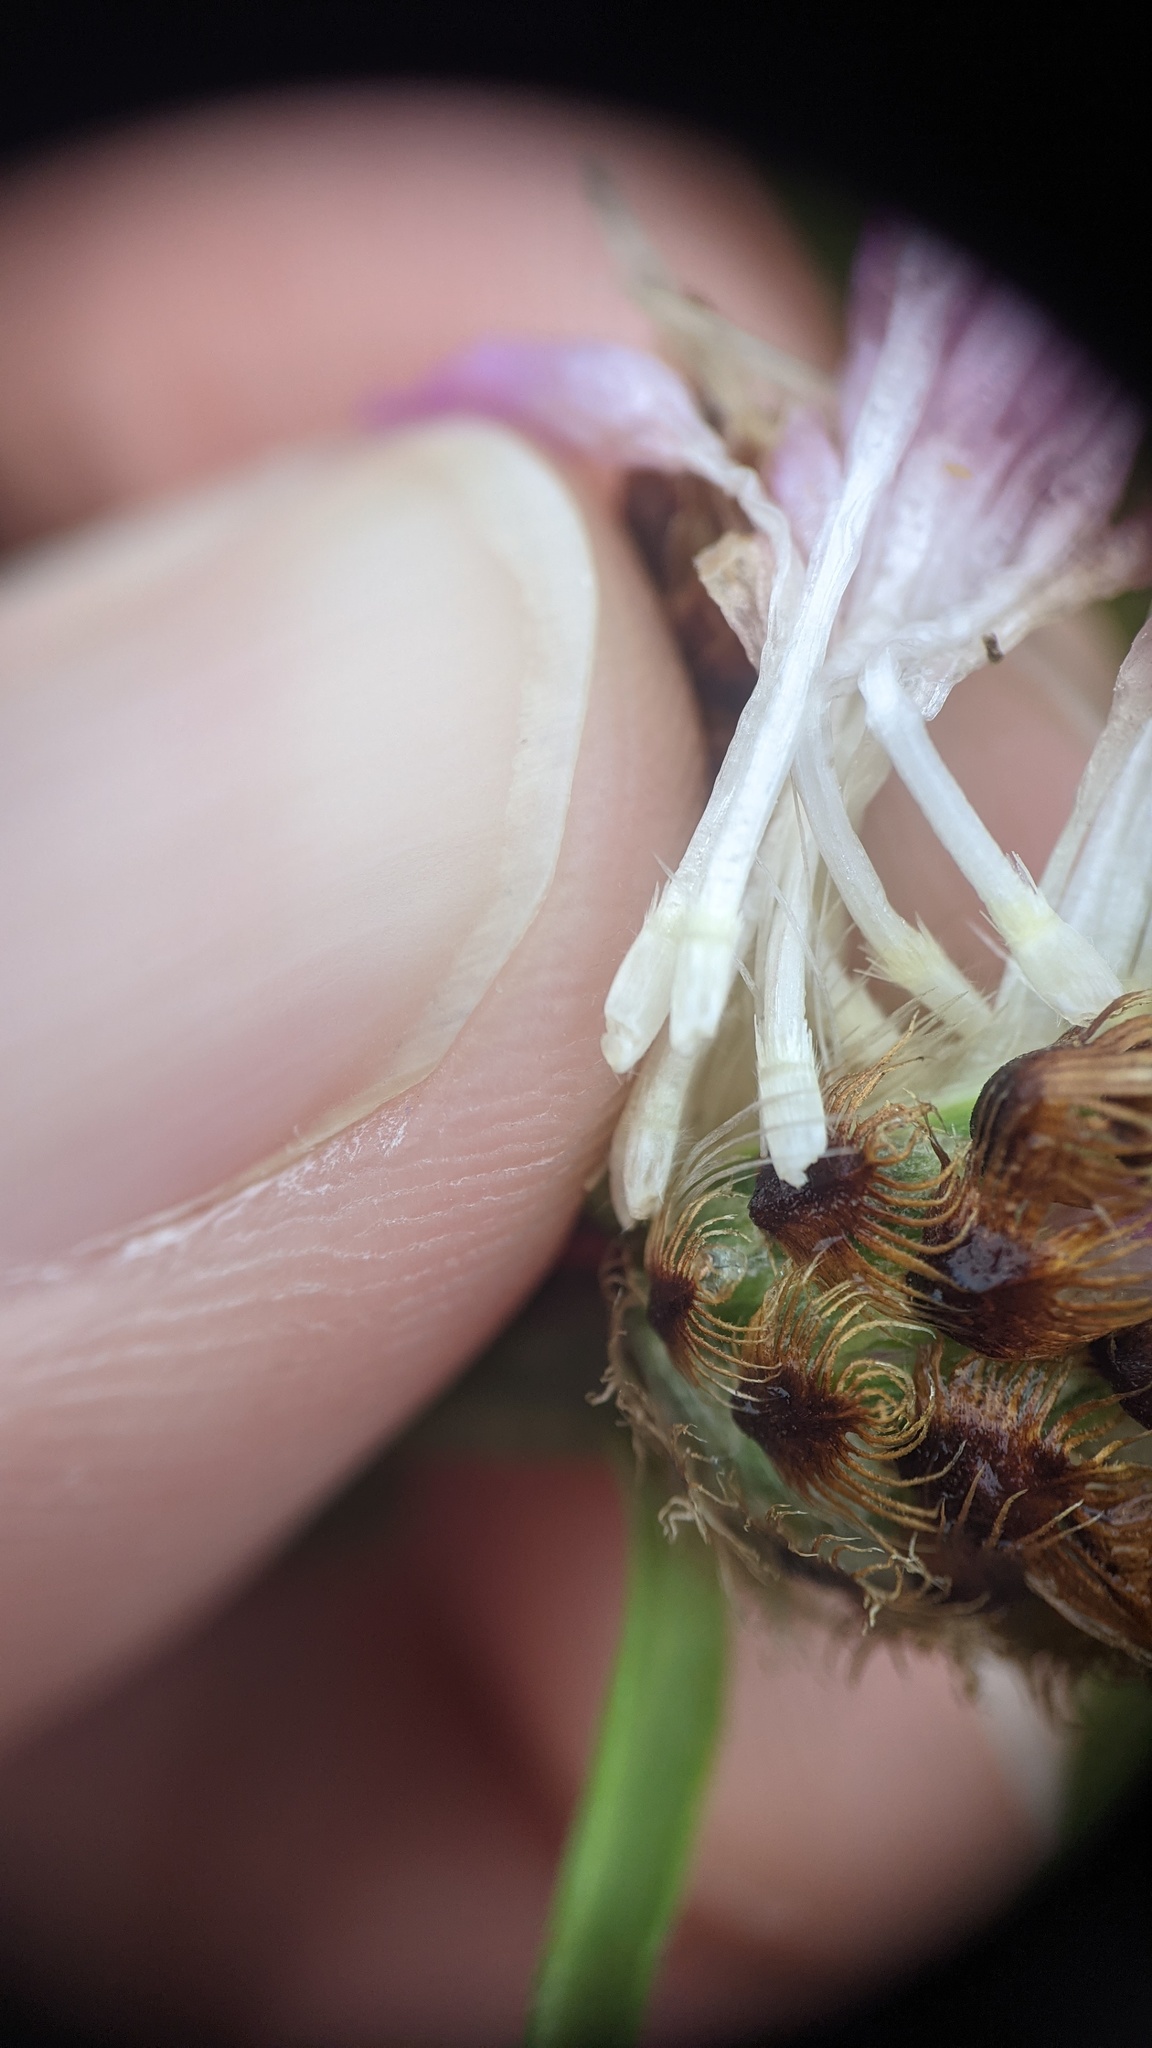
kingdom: Plantae
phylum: Tracheophyta
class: Magnoliopsida
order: Asterales
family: Asteraceae
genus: Centaurea
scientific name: Centaurea nigra
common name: Lesser knapweed
